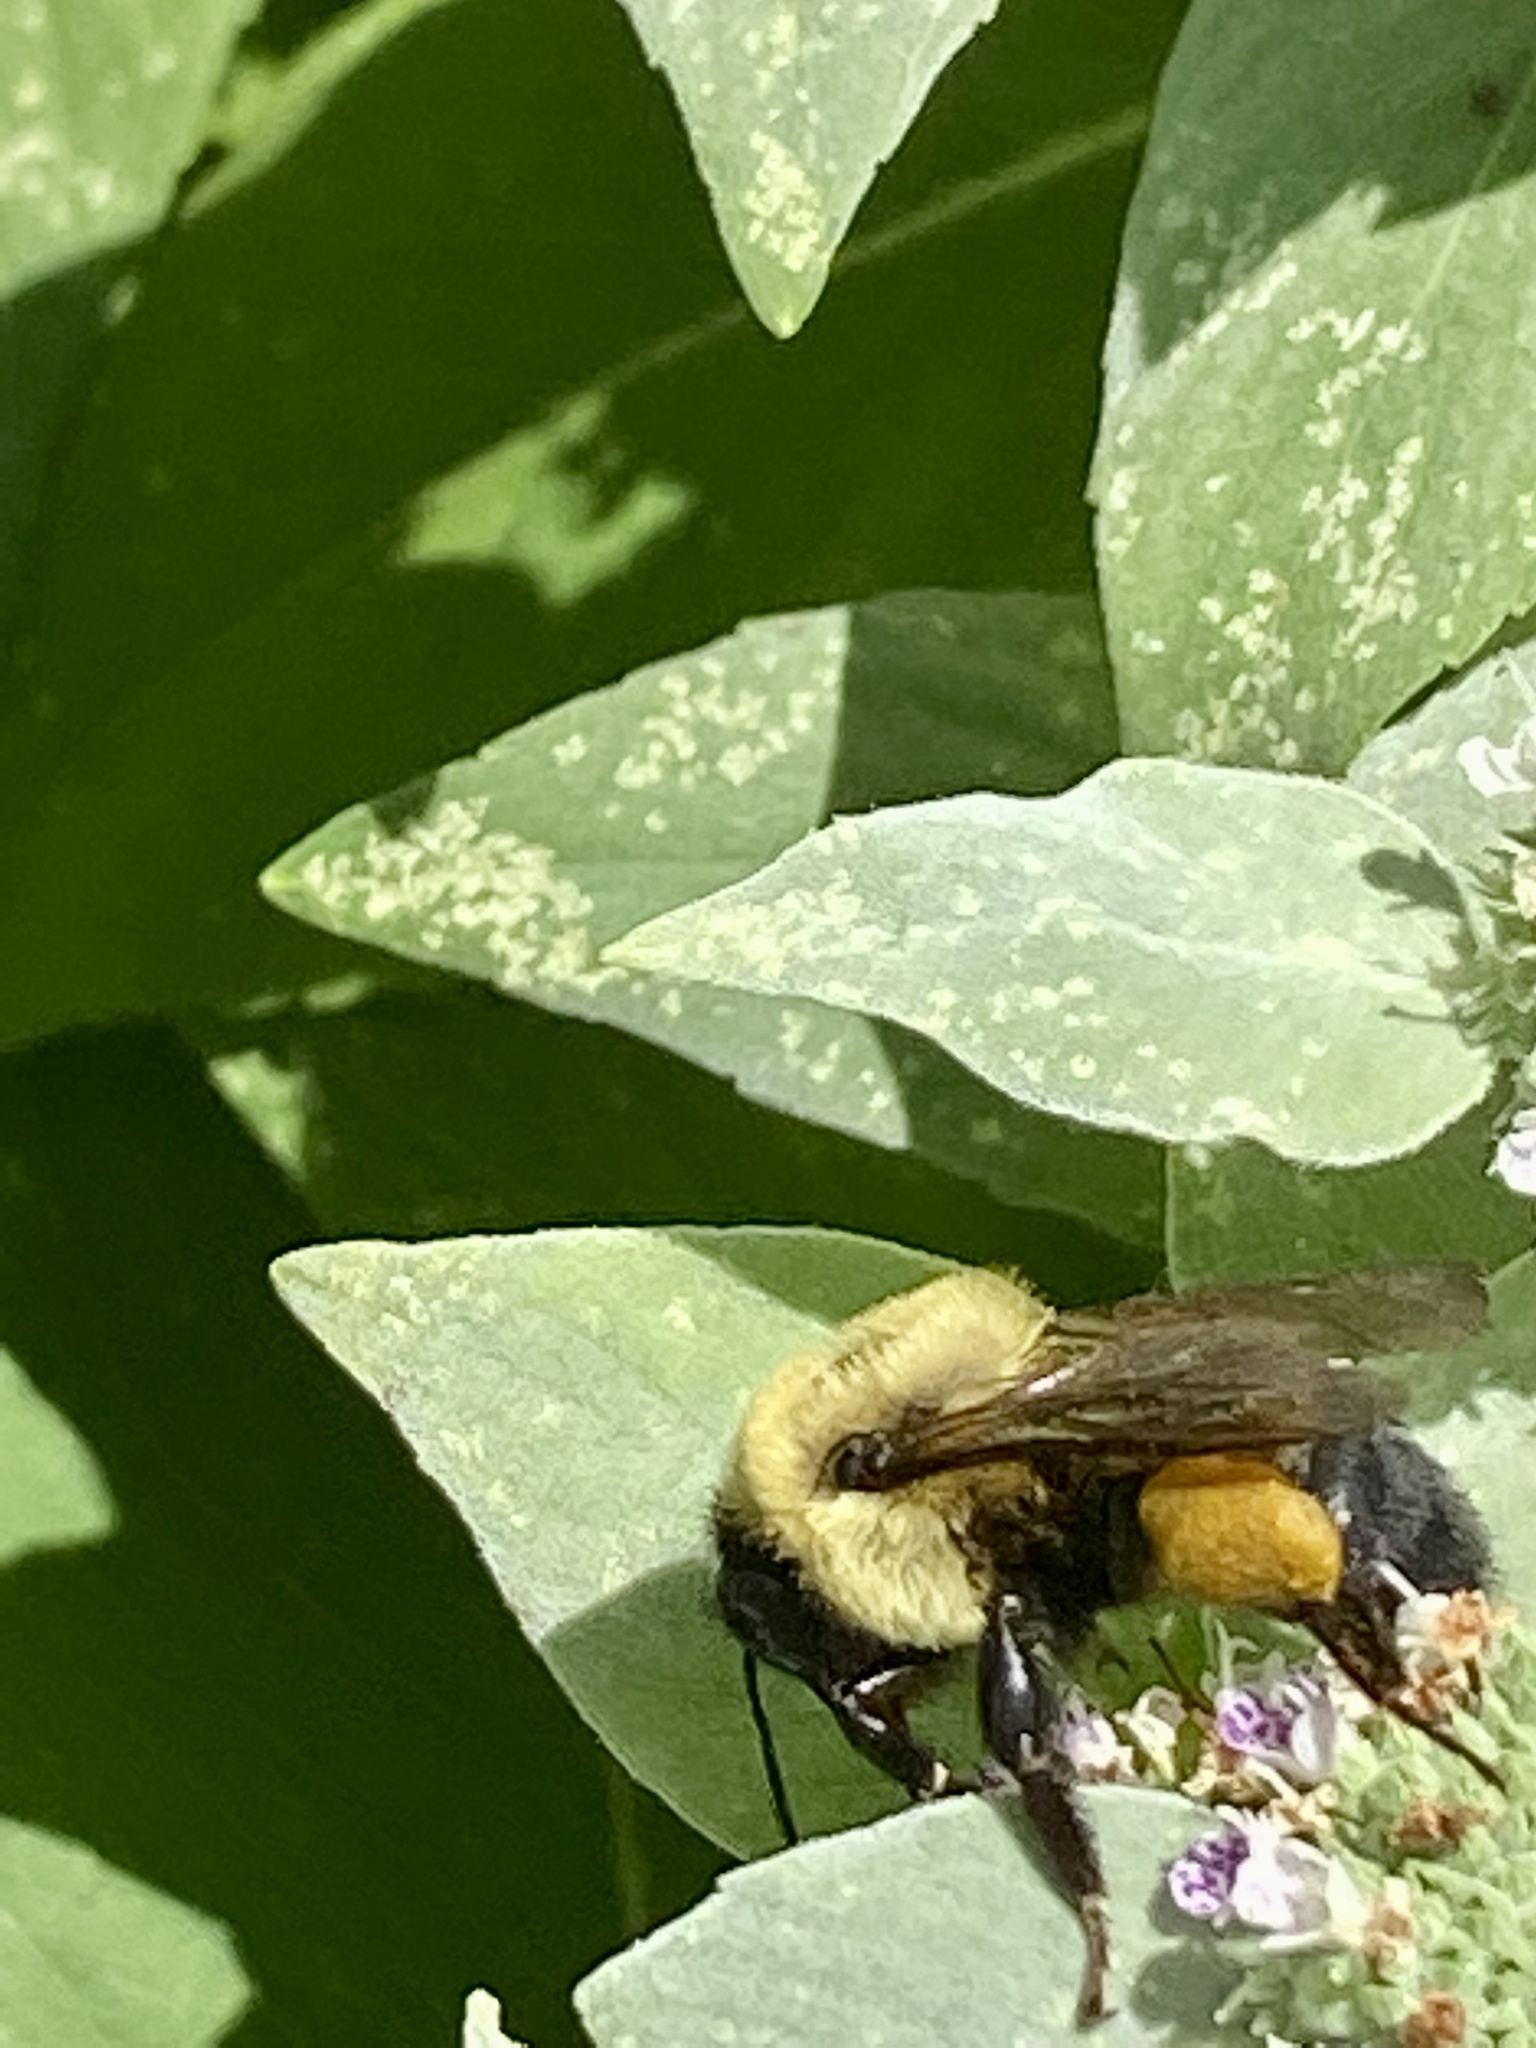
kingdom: Animalia
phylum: Arthropoda
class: Insecta
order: Hymenoptera
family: Apidae
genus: Bombus
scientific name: Bombus griseocollis
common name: Brown-belted bumble bee
